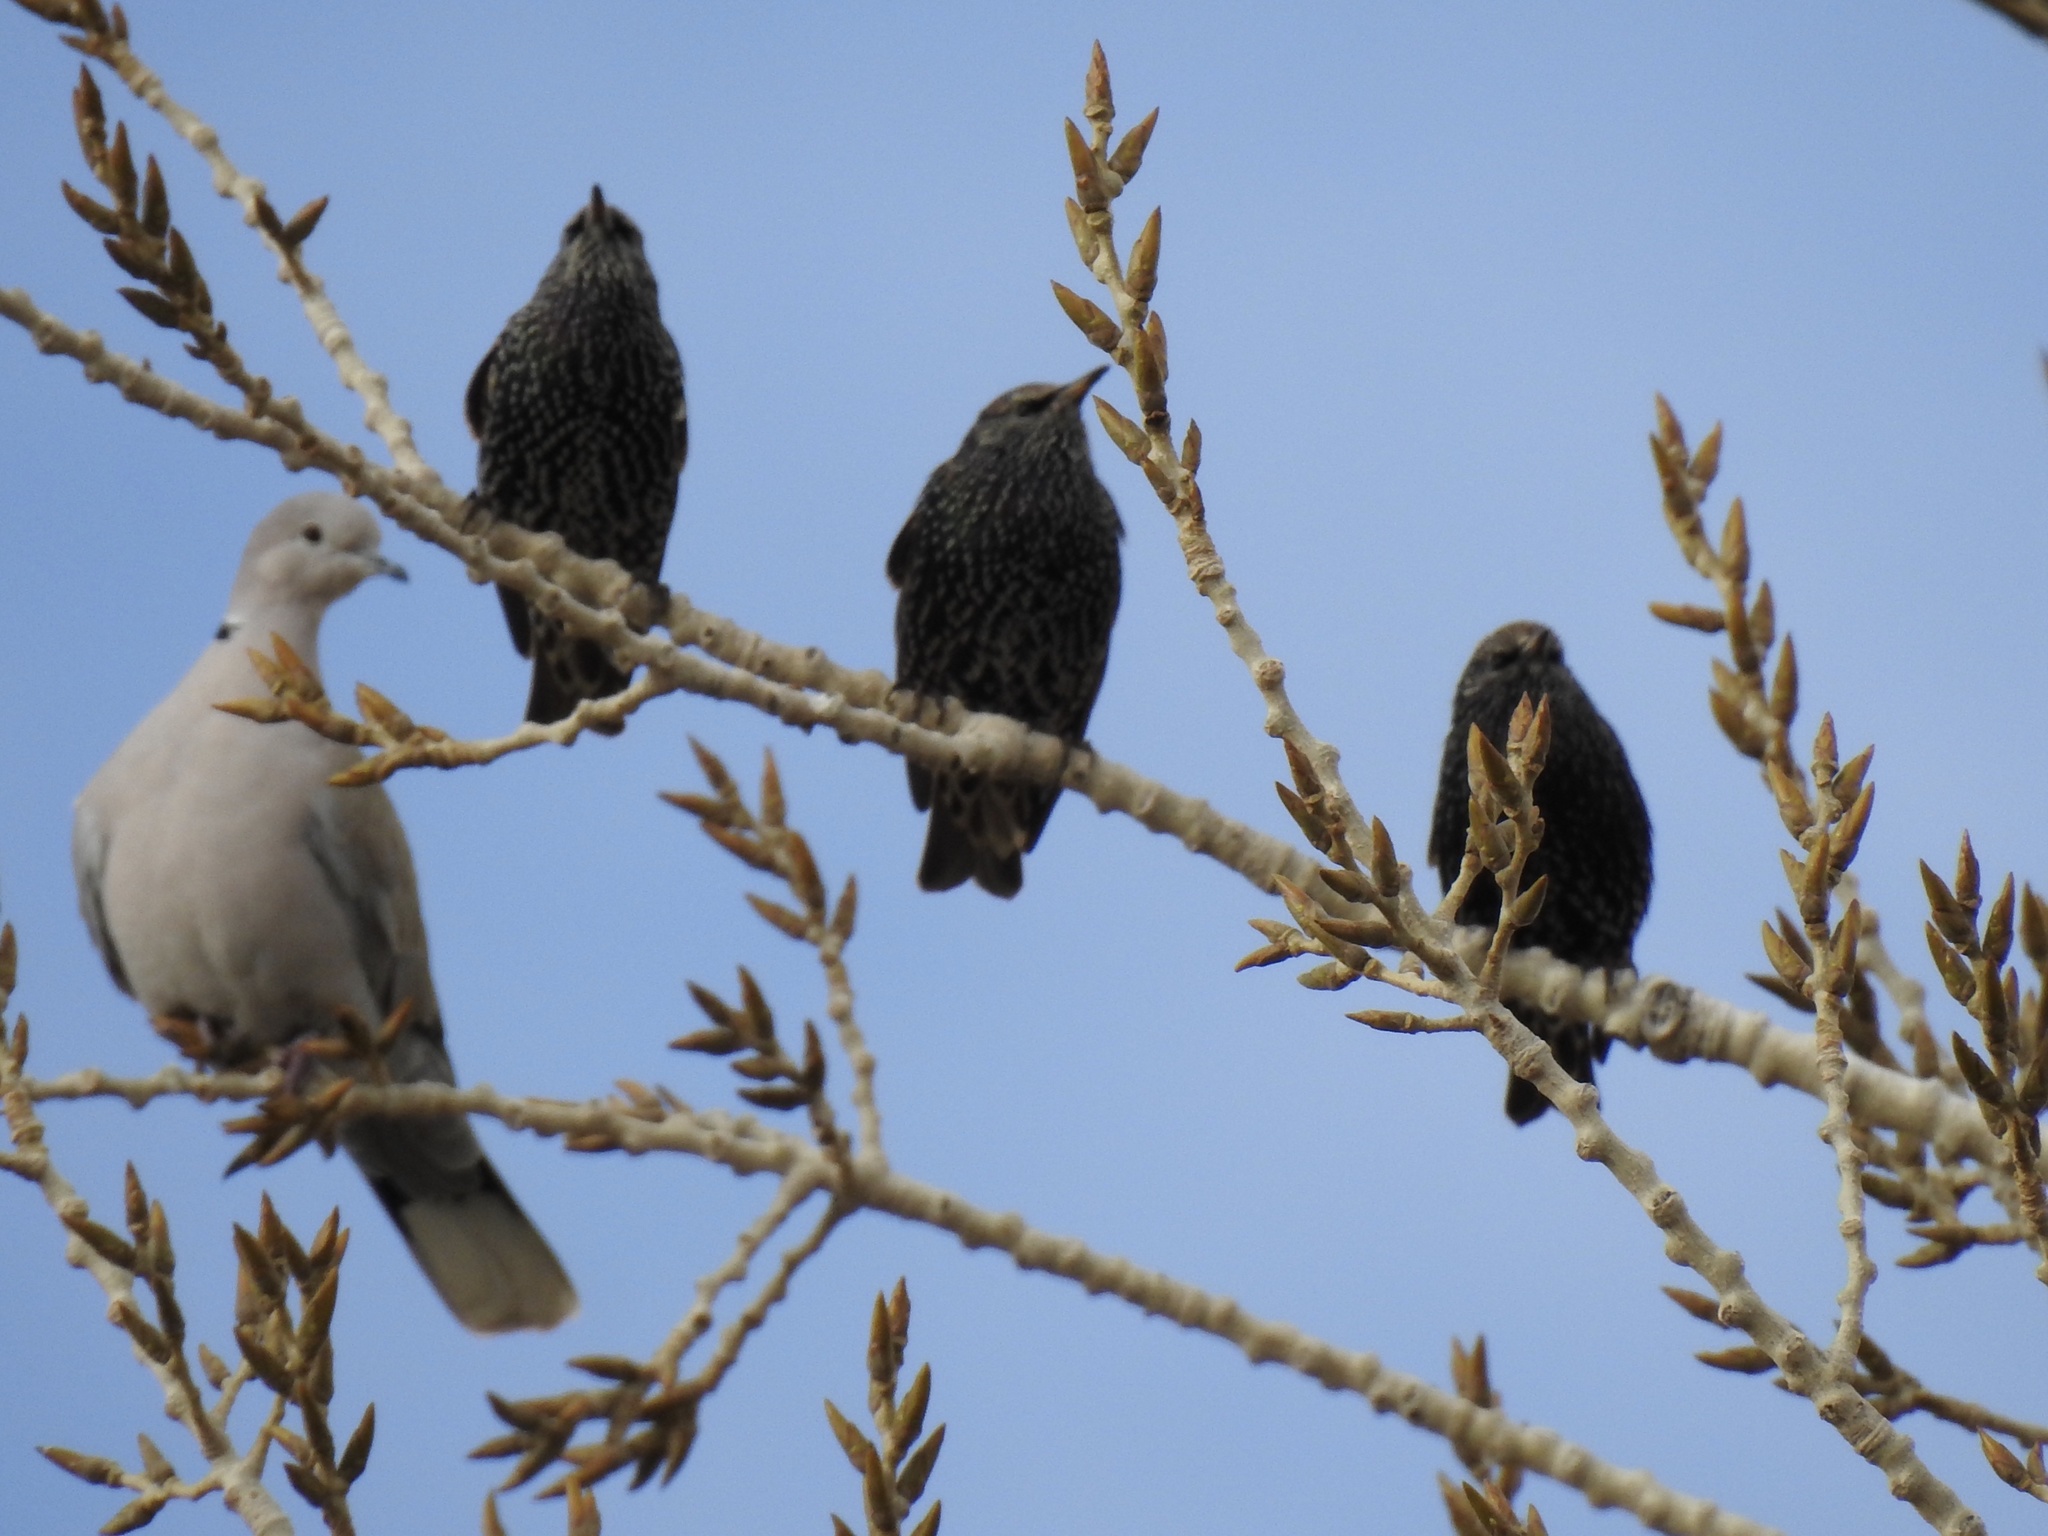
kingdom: Animalia
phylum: Chordata
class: Aves
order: Passeriformes
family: Sturnidae
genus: Sturnus
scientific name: Sturnus vulgaris
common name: Common starling
